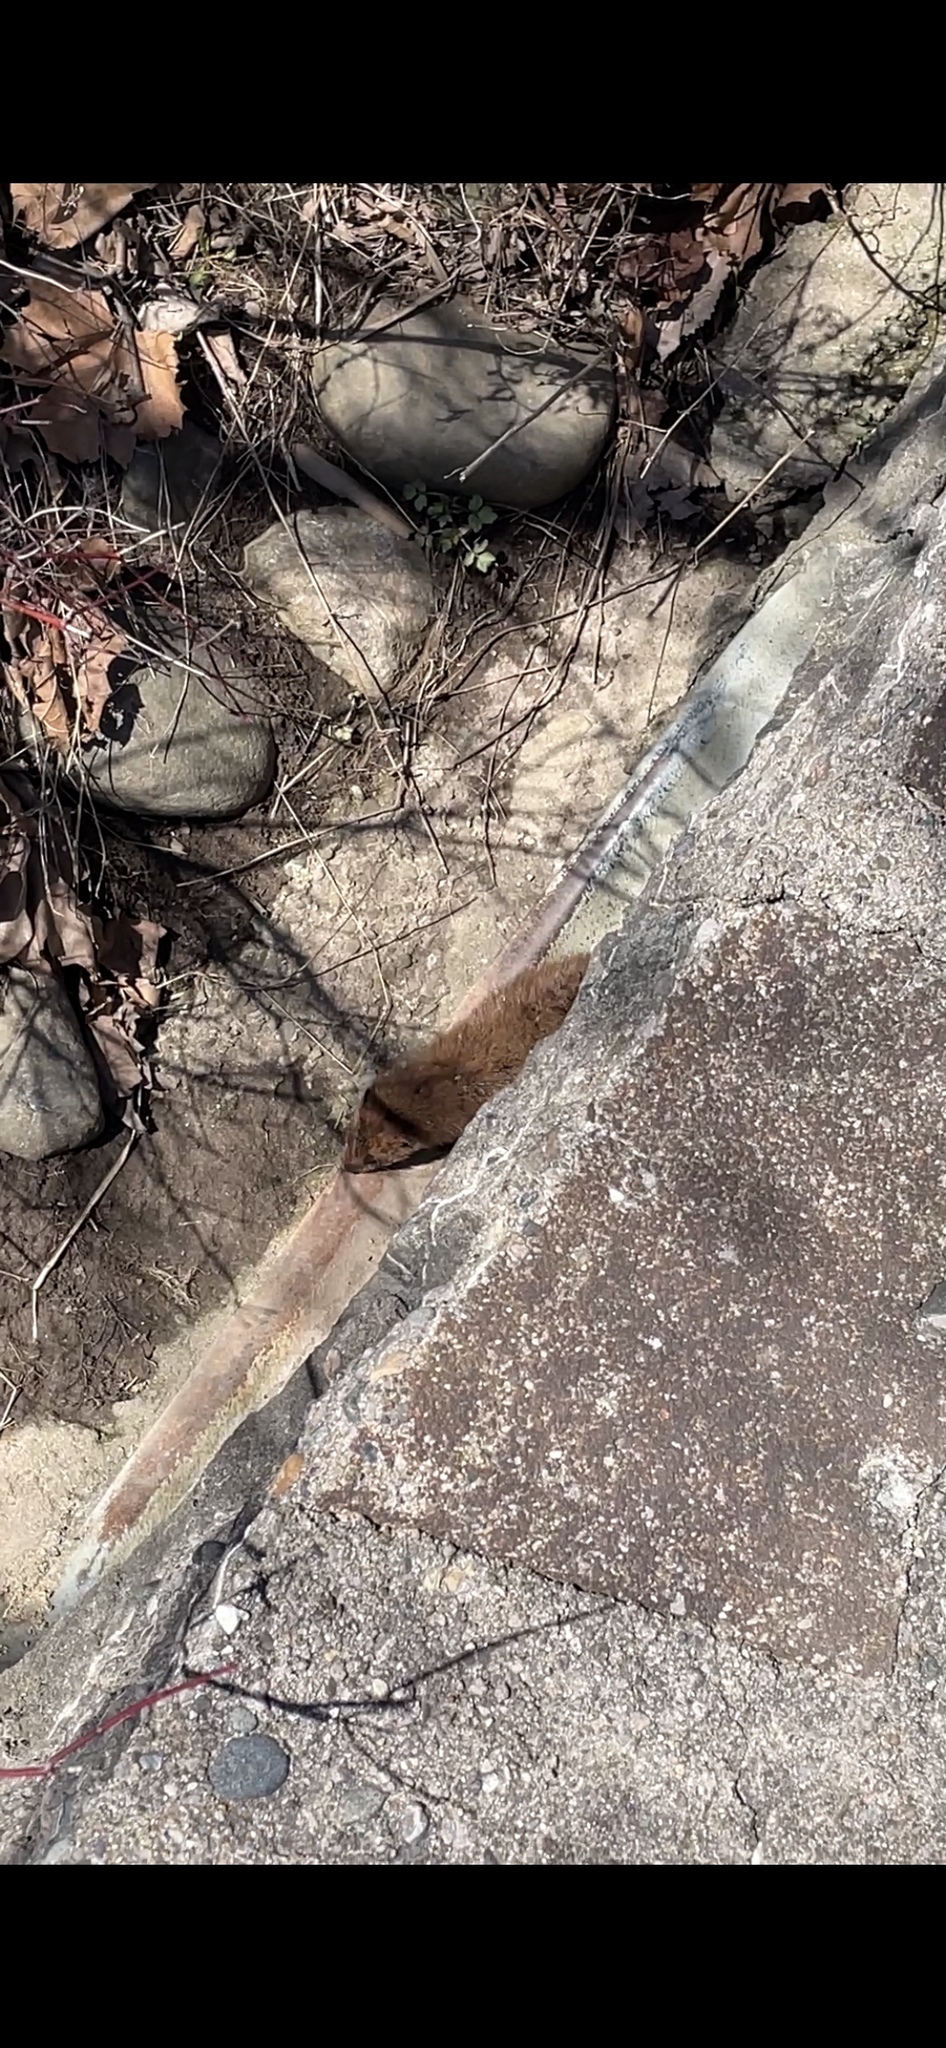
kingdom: Animalia
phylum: Chordata
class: Mammalia
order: Carnivora
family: Mustelidae
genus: Mustela
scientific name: Mustela
